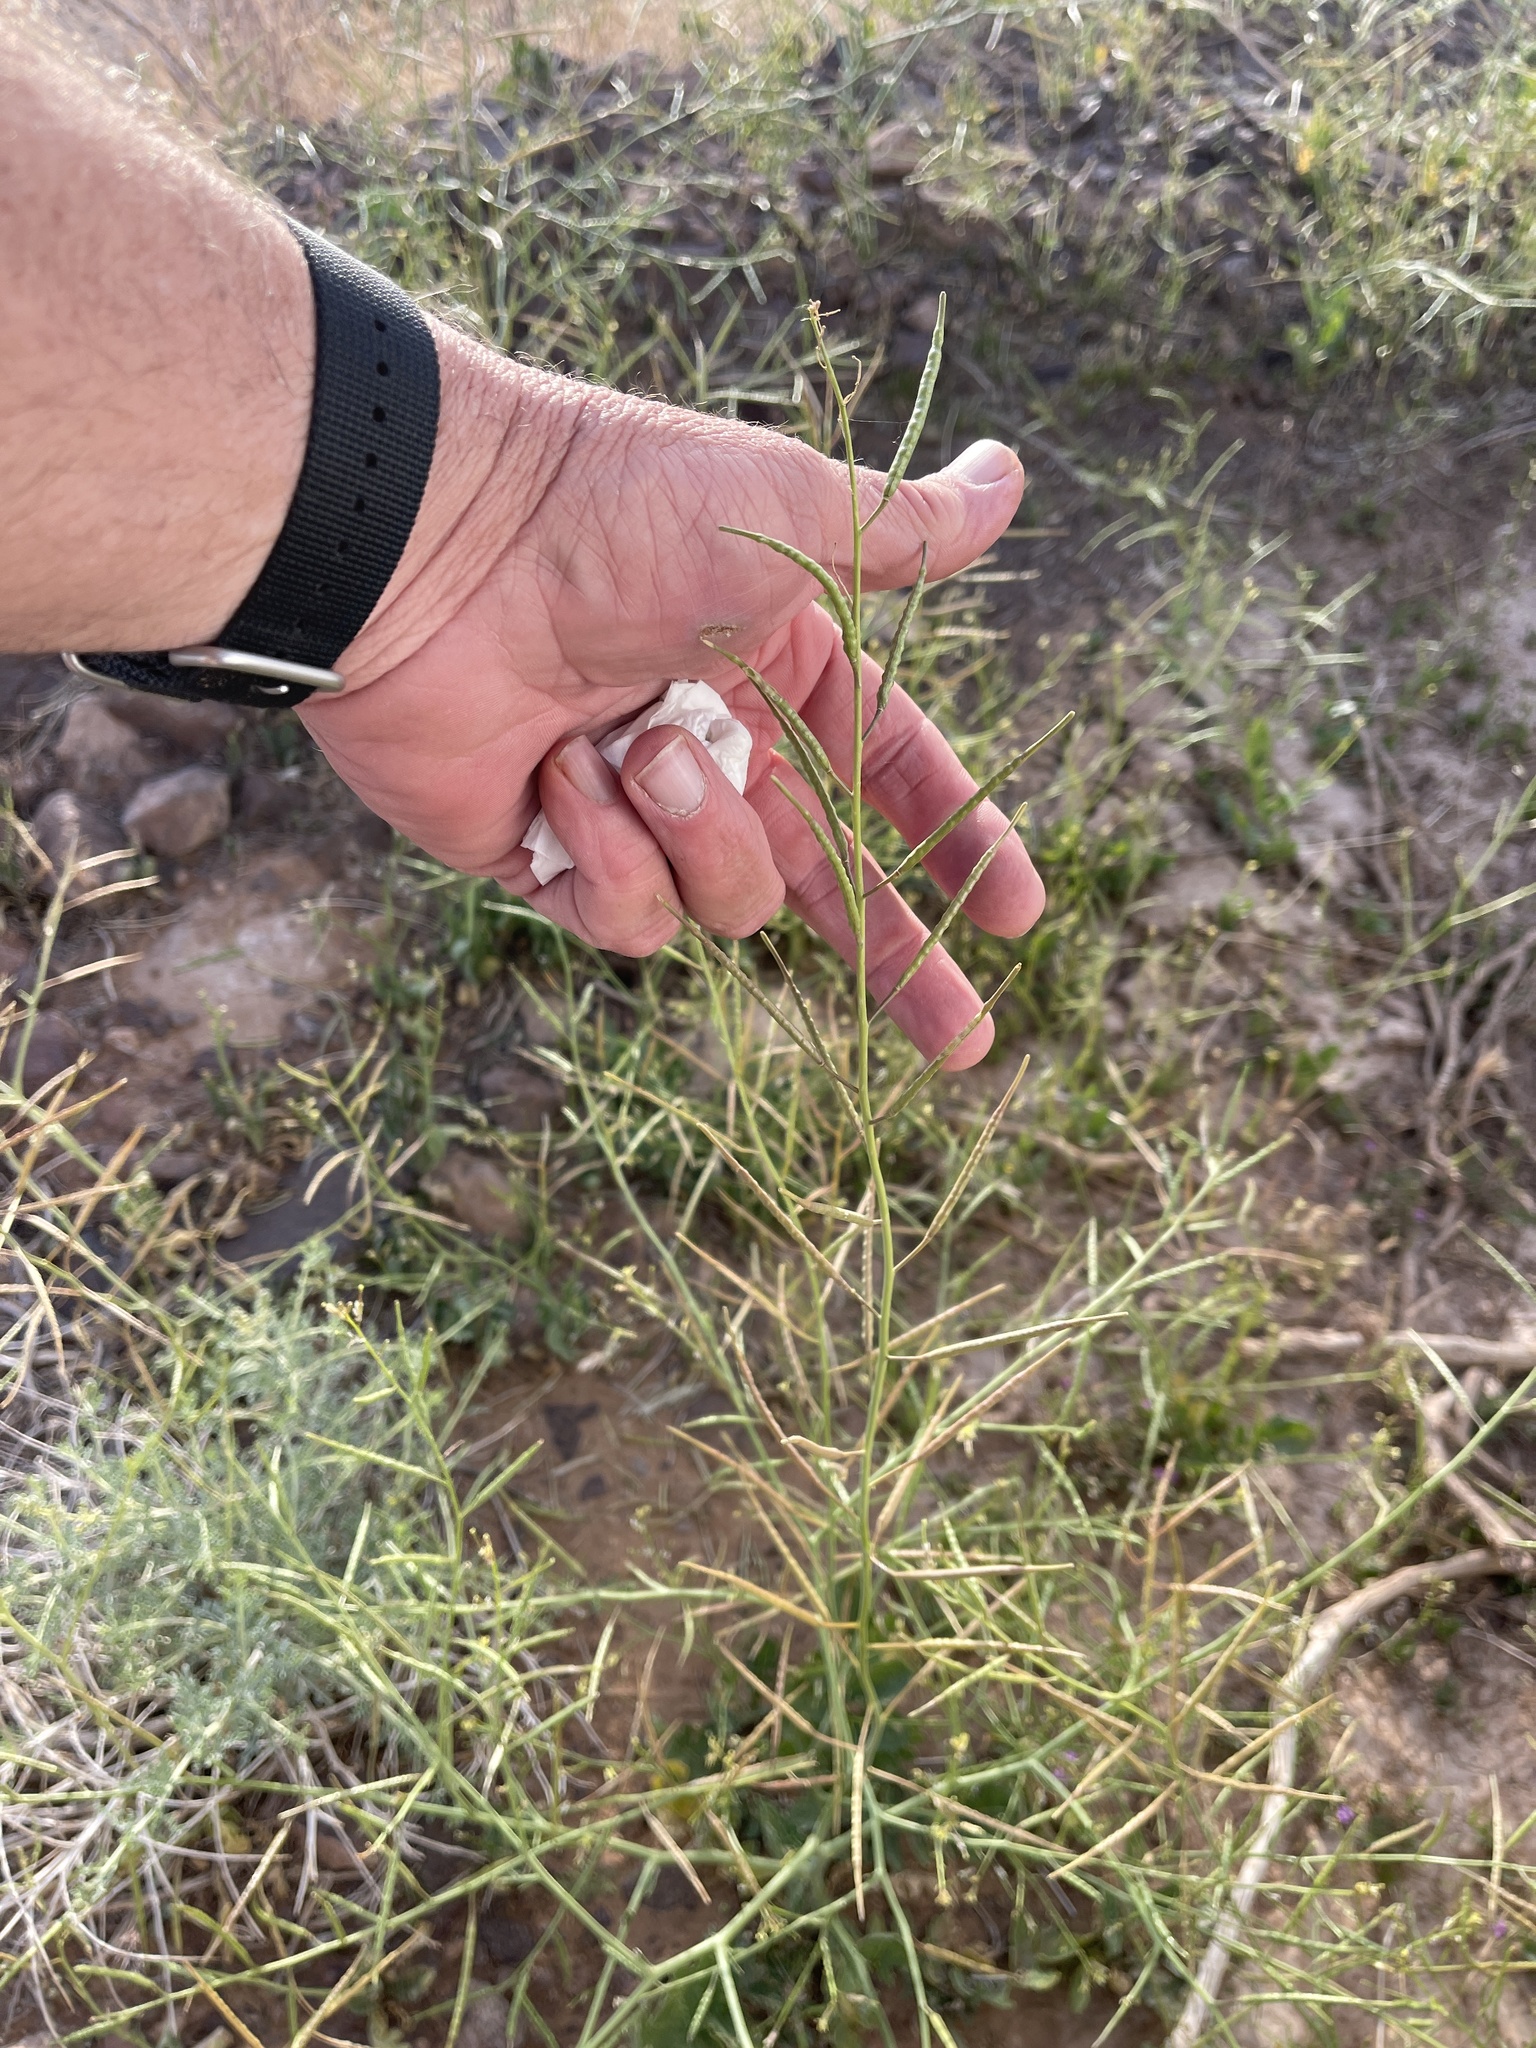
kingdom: Plantae
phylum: Tracheophyta
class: Magnoliopsida
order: Brassicales
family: Brassicaceae
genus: Brassica
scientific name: Brassica tournefortii
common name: Pale cabbage
